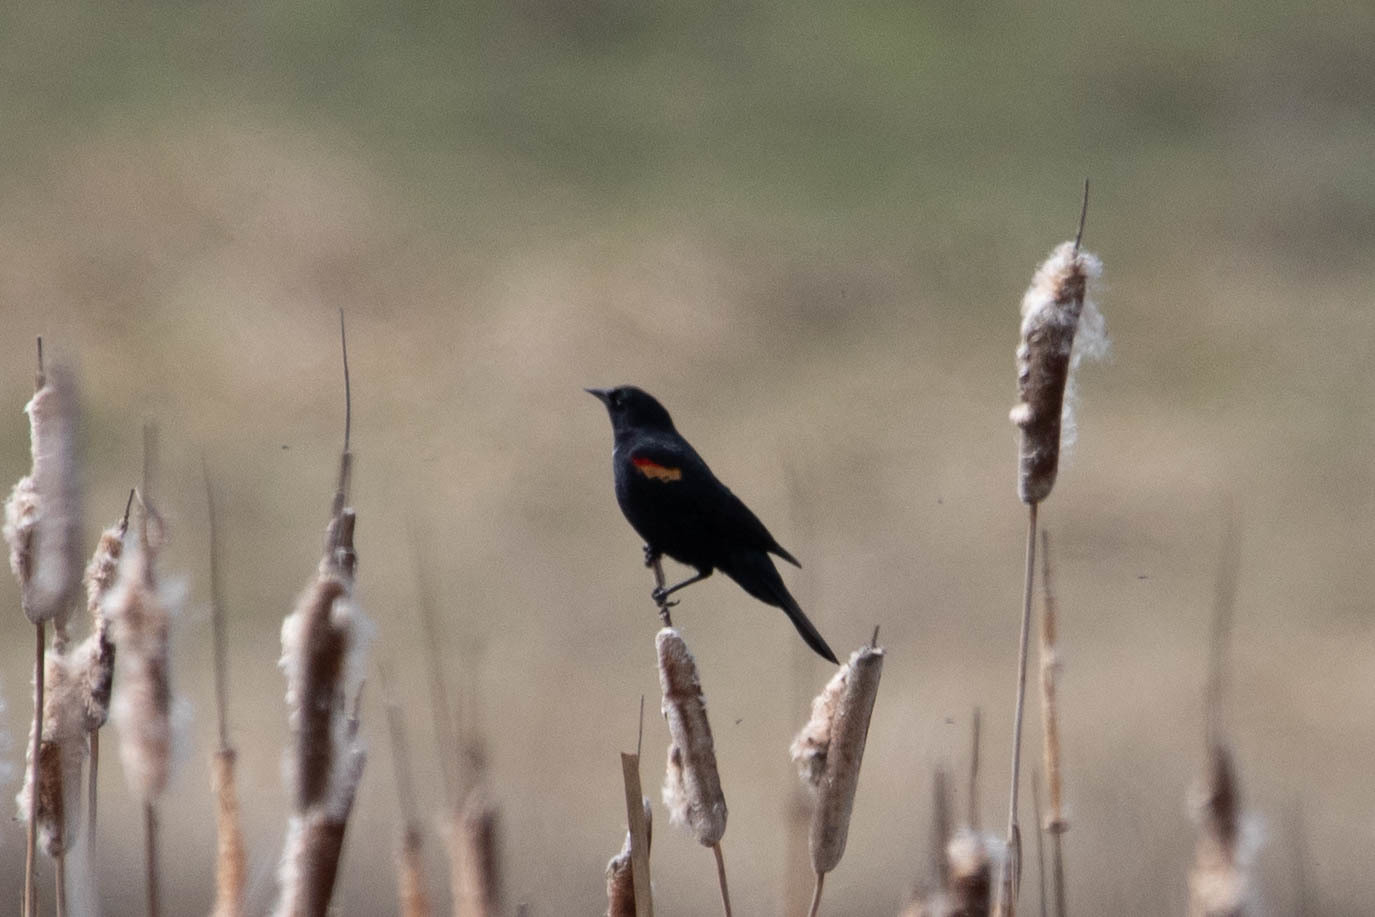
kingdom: Animalia
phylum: Chordata
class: Aves
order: Passeriformes
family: Icteridae
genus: Agelaius
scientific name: Agelaius phoeniceus
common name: Red-winged blackbird
